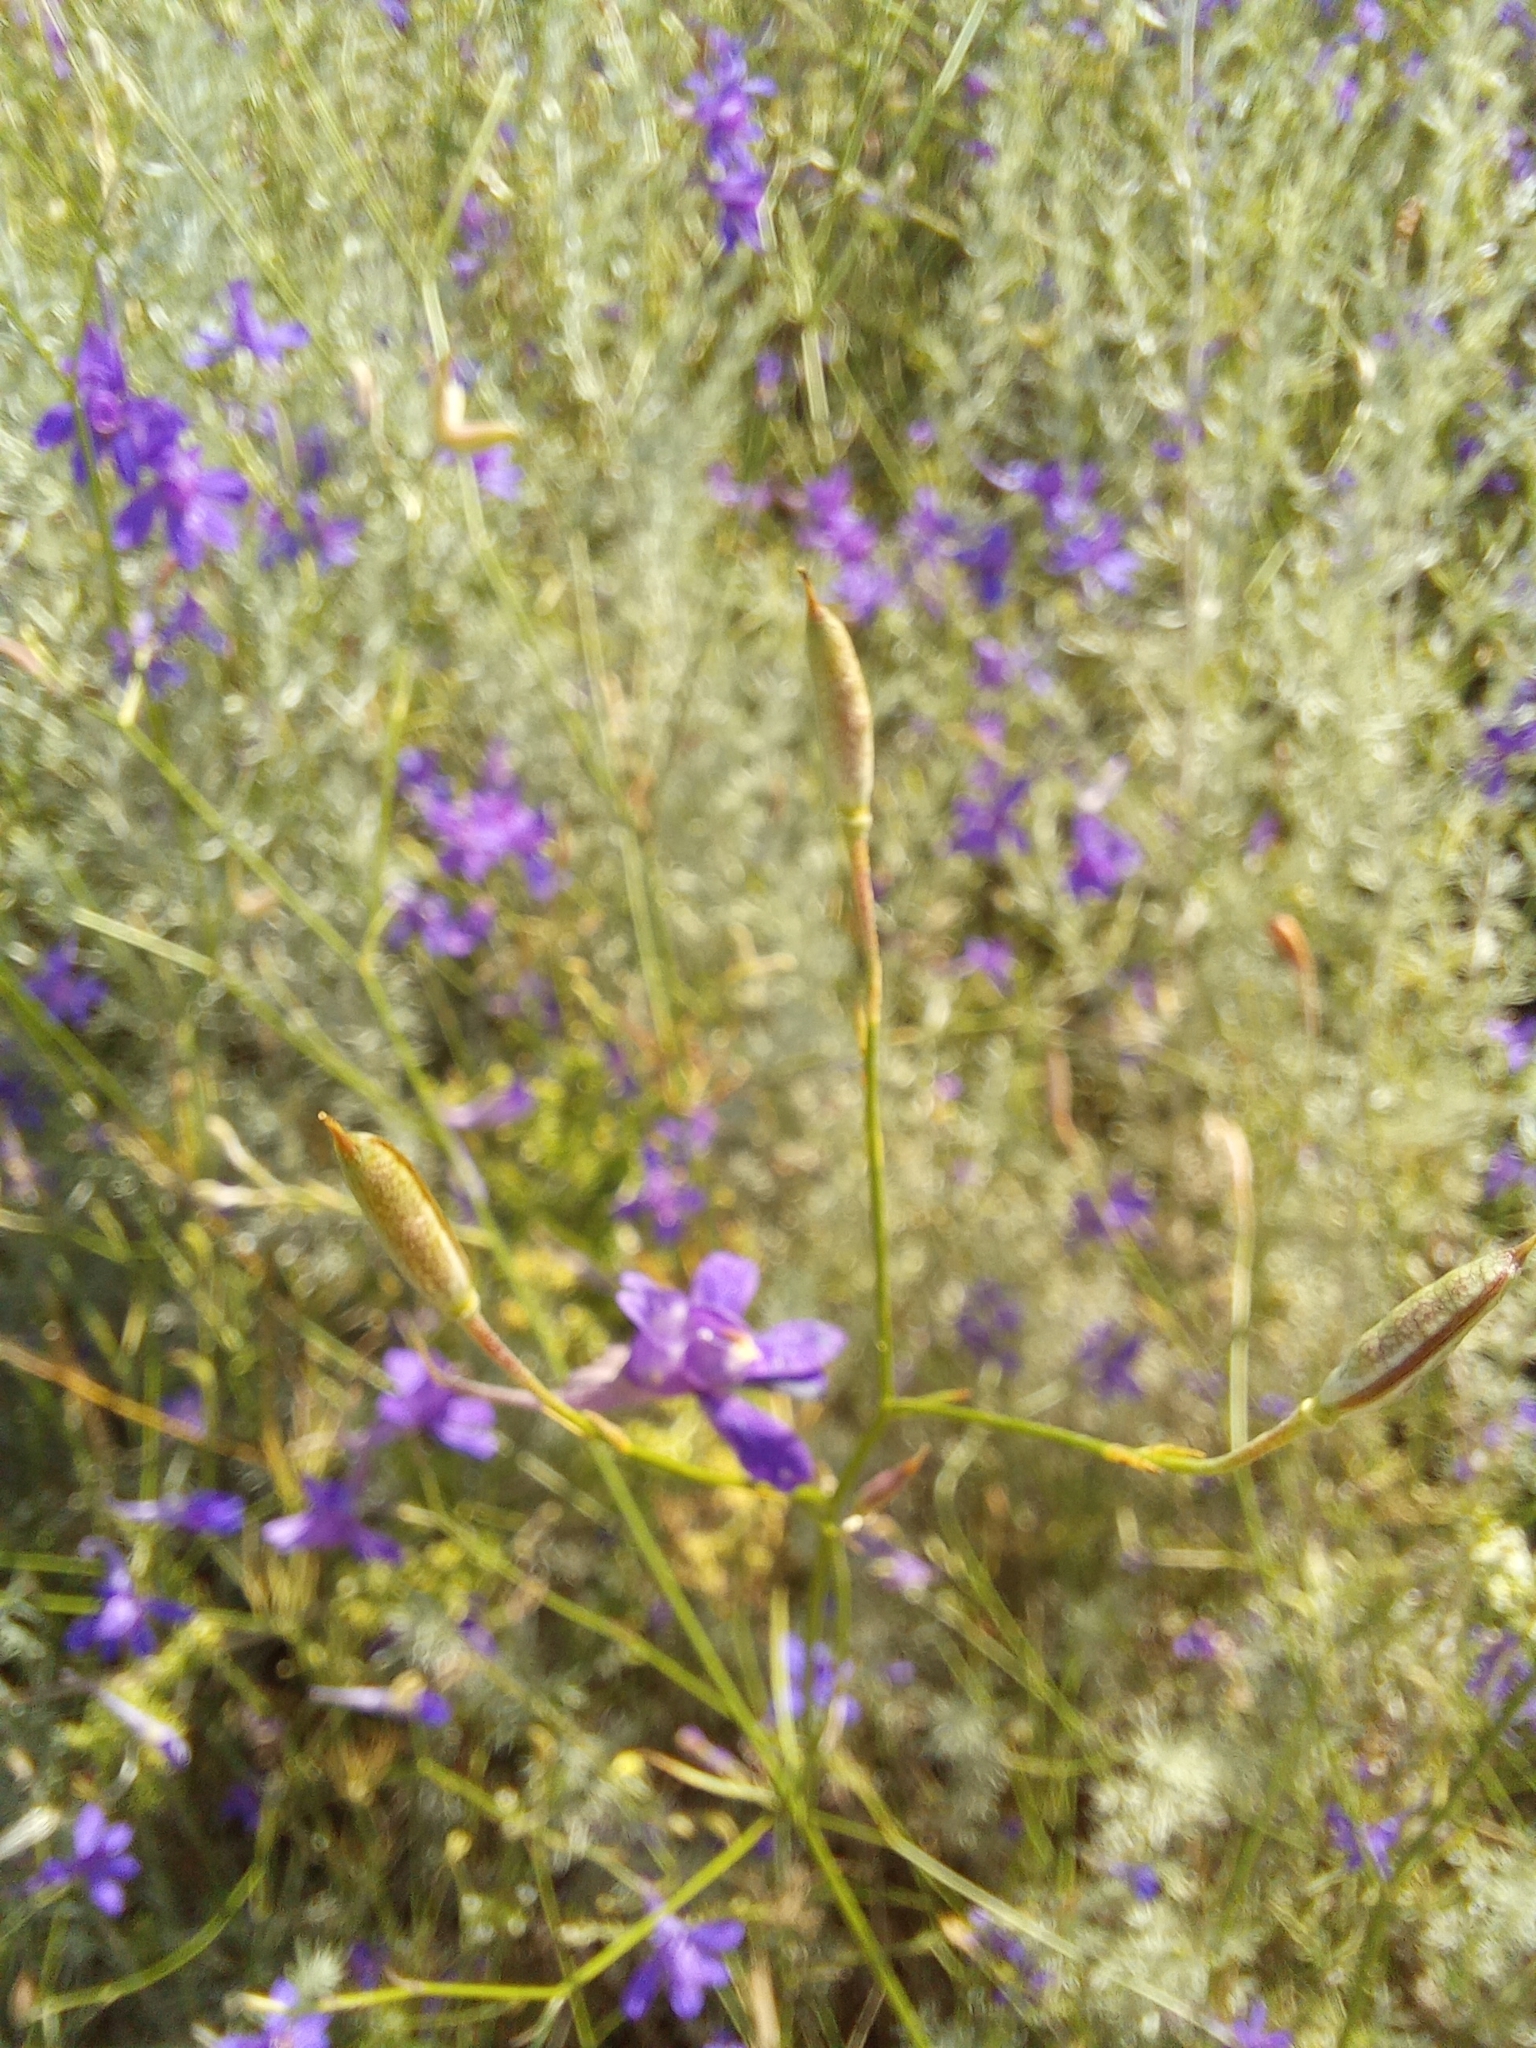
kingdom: Plantae
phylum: Tracheophyta
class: Magnoliopsida
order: Ranunculales
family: Ranunculaceae
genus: Delphinium
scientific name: Delphinium consolida
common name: Branching larkspur
